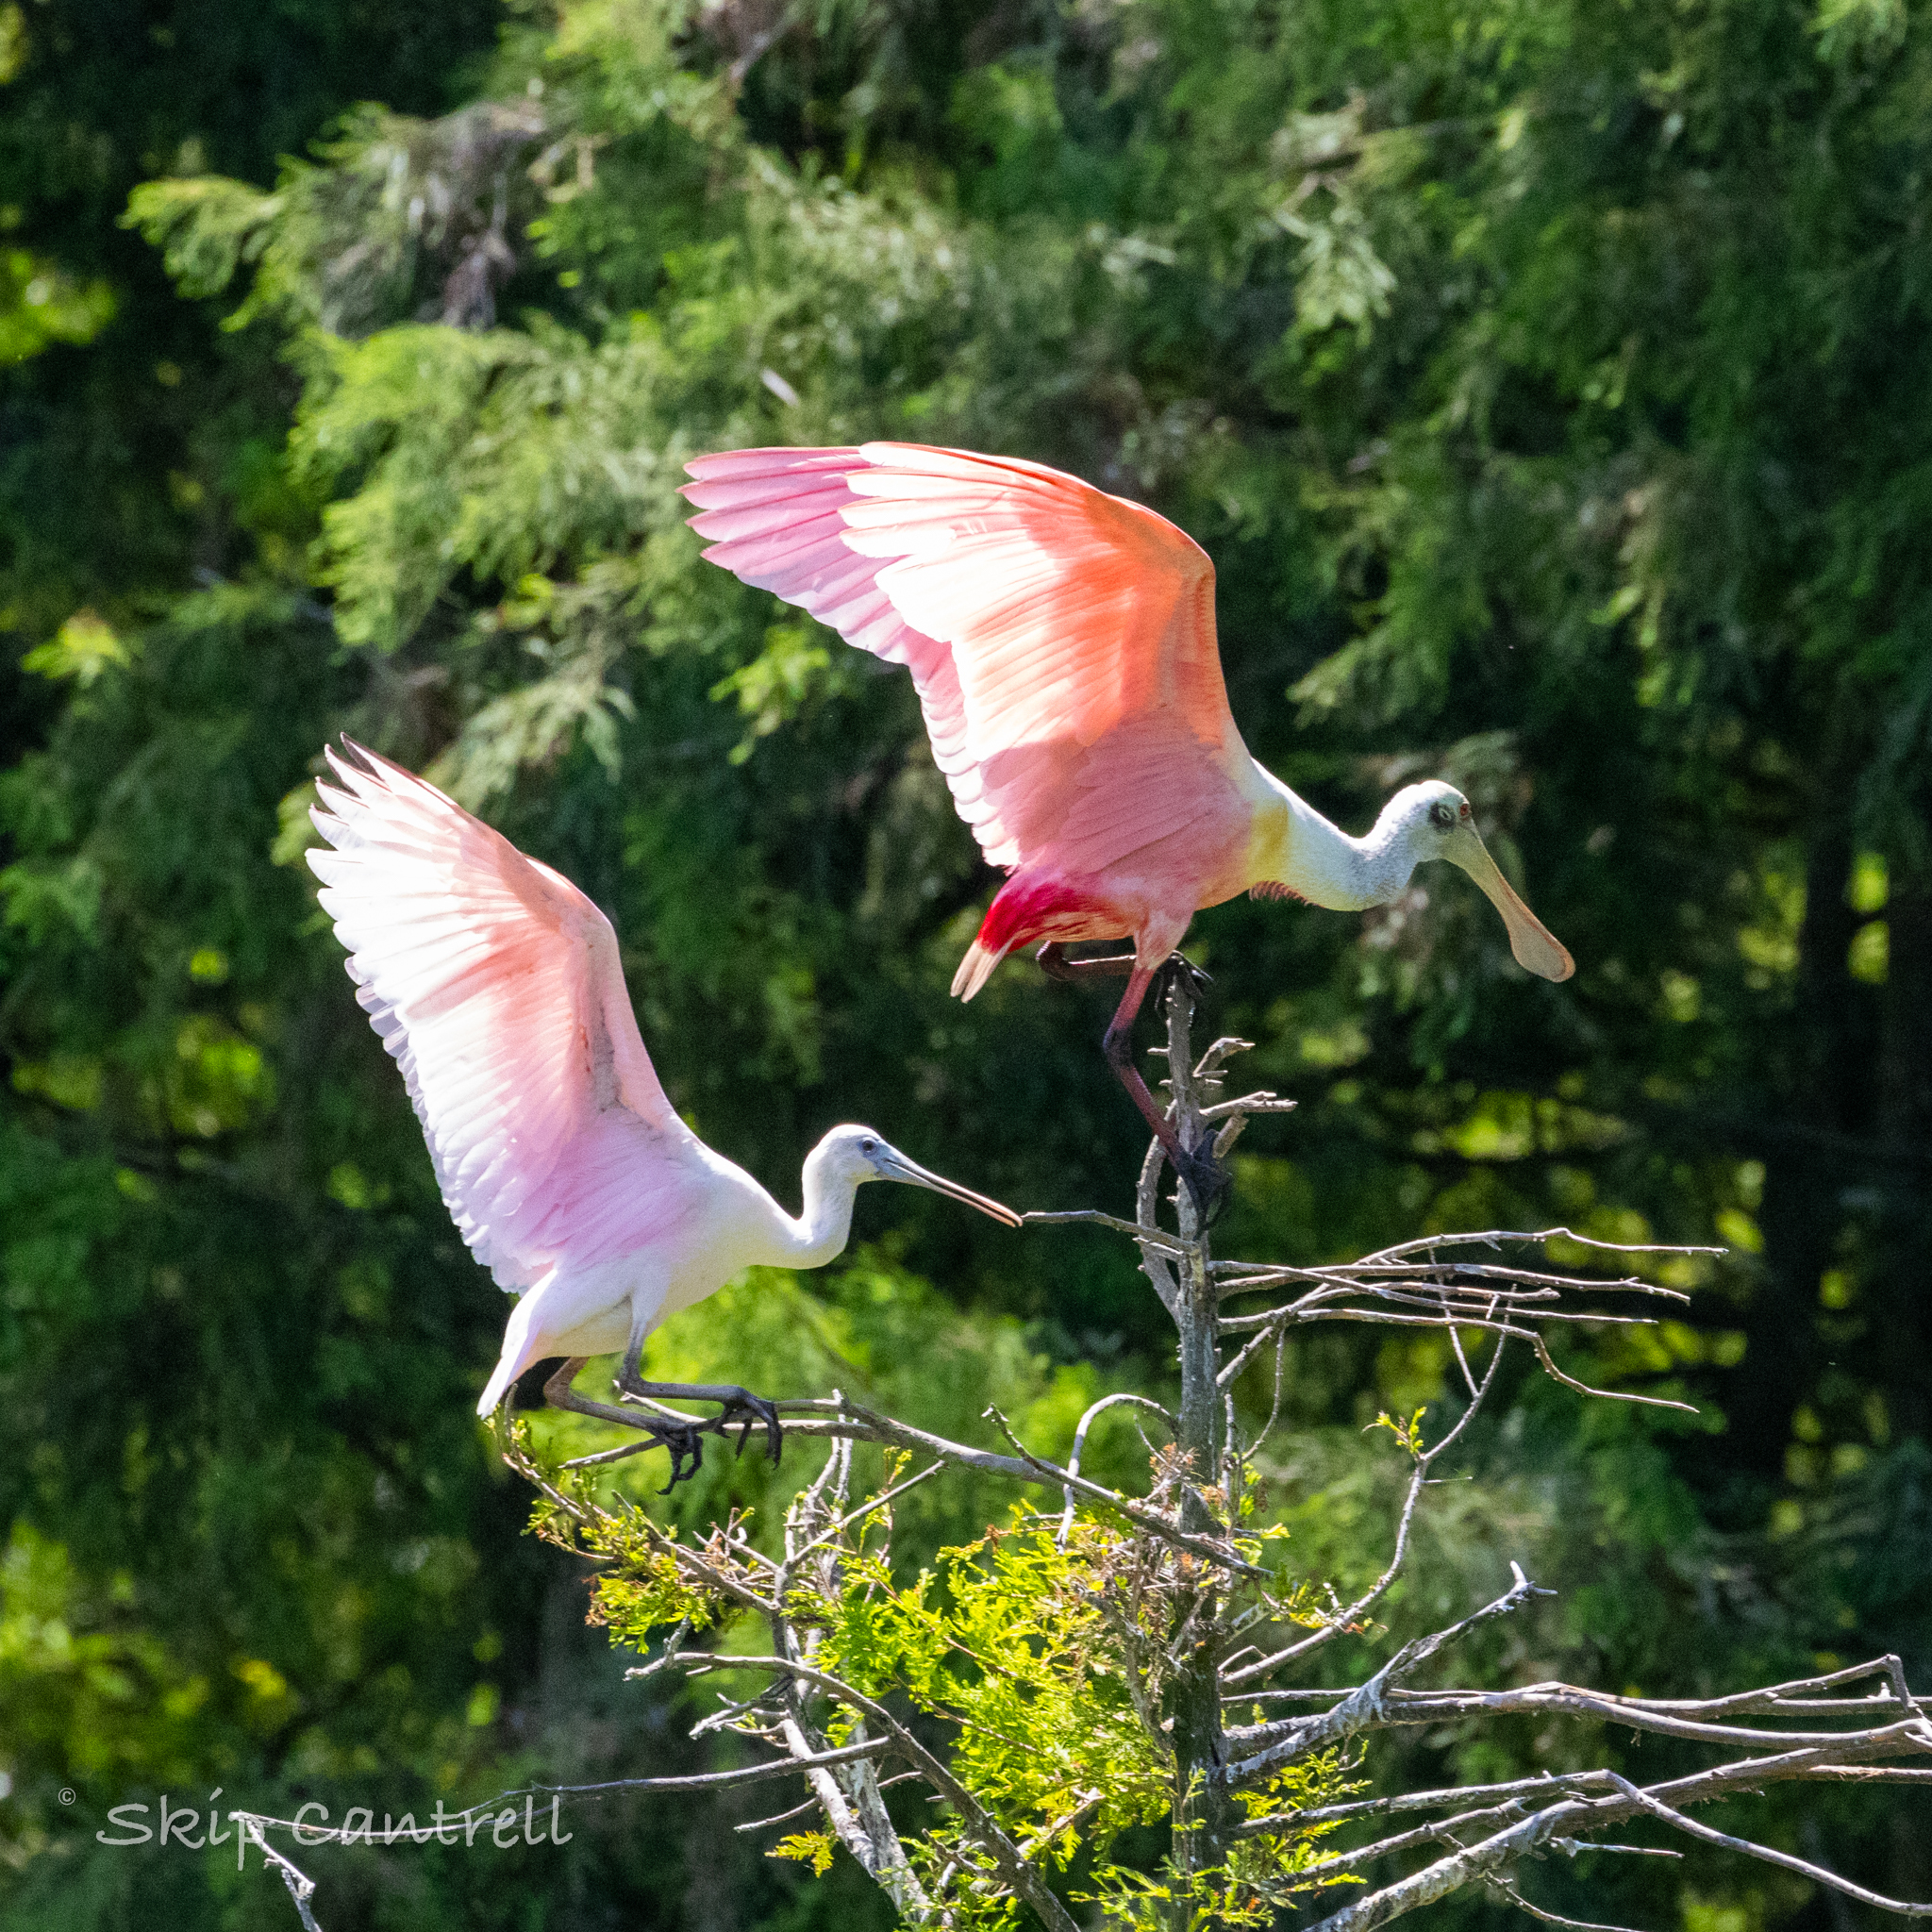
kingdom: Animalia
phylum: Chordata
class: Aves
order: Pelecaniformes
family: Threskiornithidae
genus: Platalea
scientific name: Platalea ajaja
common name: Roseate spoonbill
